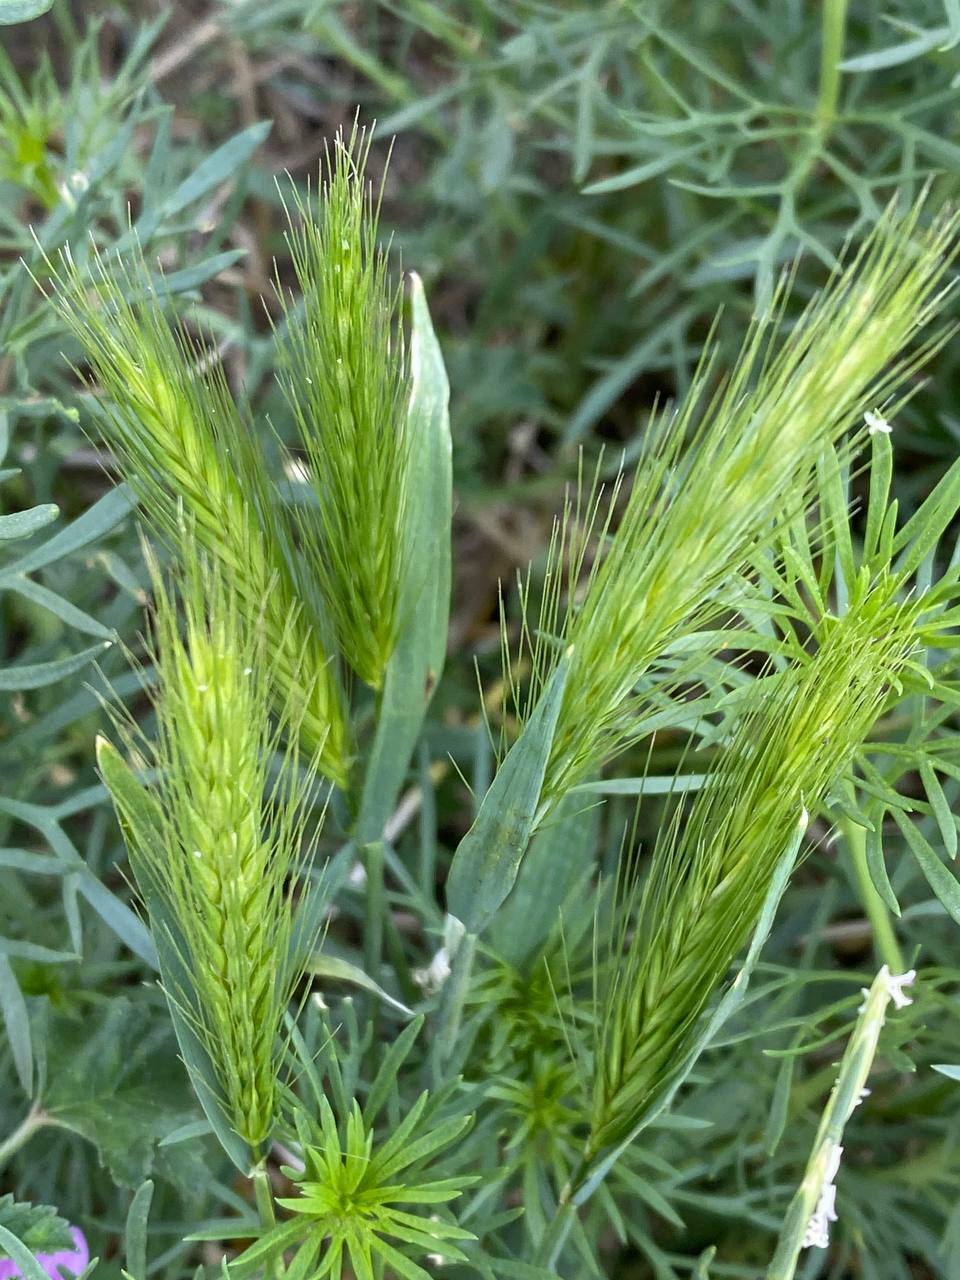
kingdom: Plantae
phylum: Tracheophyta
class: Liliopsida
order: Poales
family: Poaceae
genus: Hordeum
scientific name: Hordeum murinum
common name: Wall barley
